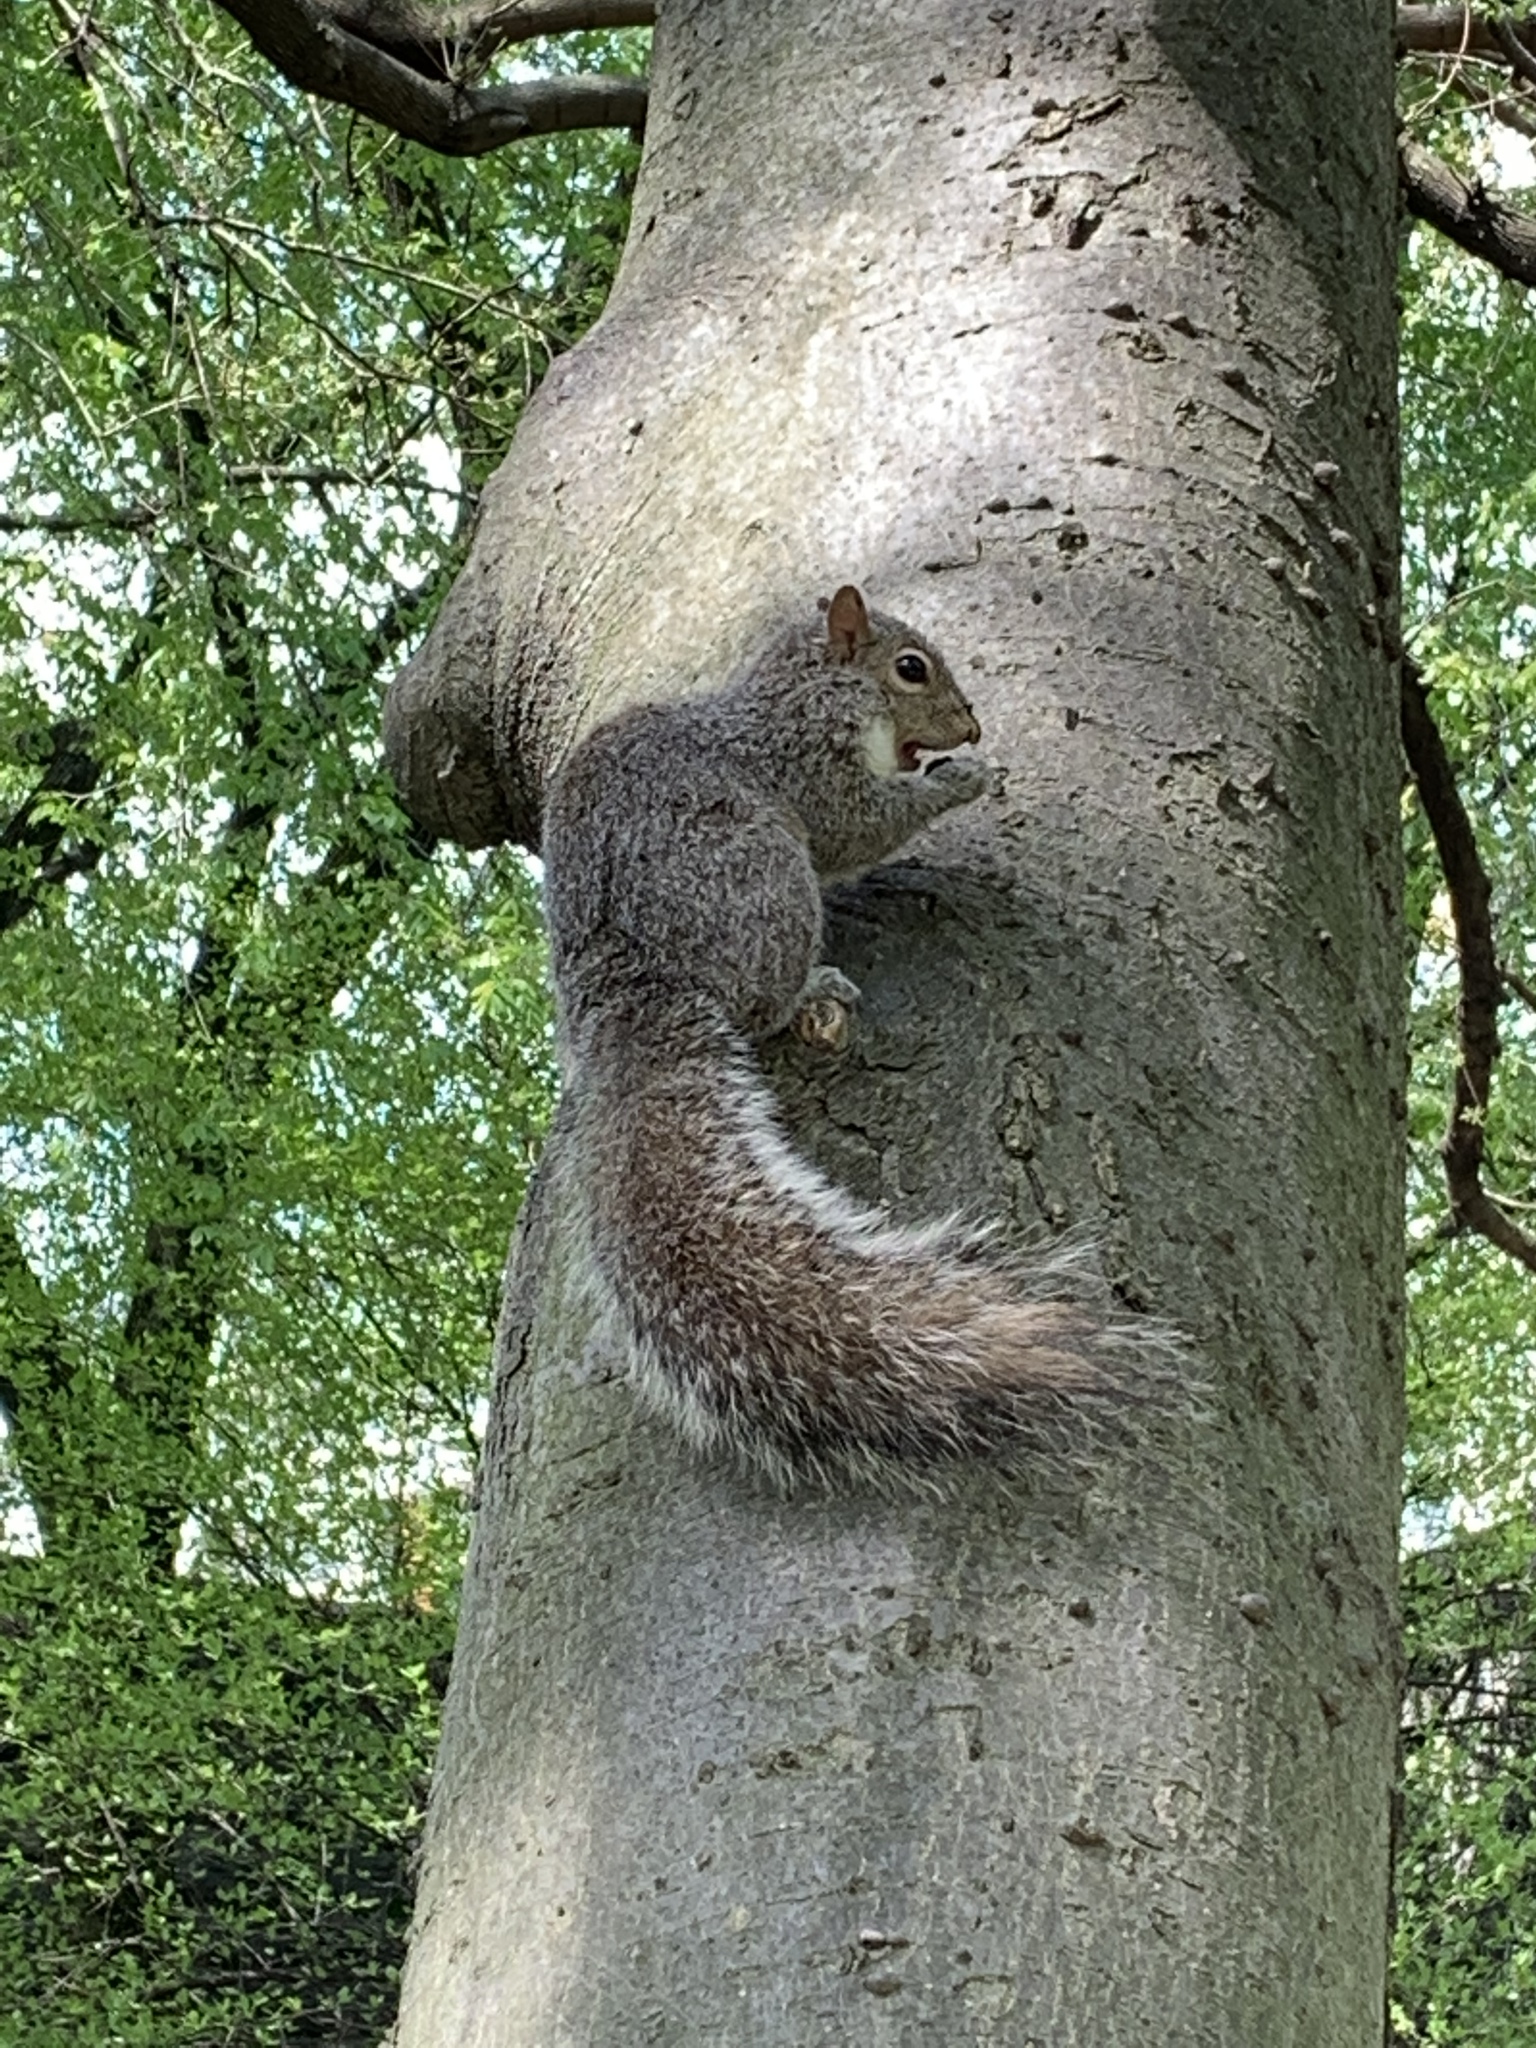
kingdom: Animalia
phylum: Chordata
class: Mammalia
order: Rodentia
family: Sciuridae
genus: Sciurus
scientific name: Sciurus carolinensis
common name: Eastern gray squirrel
